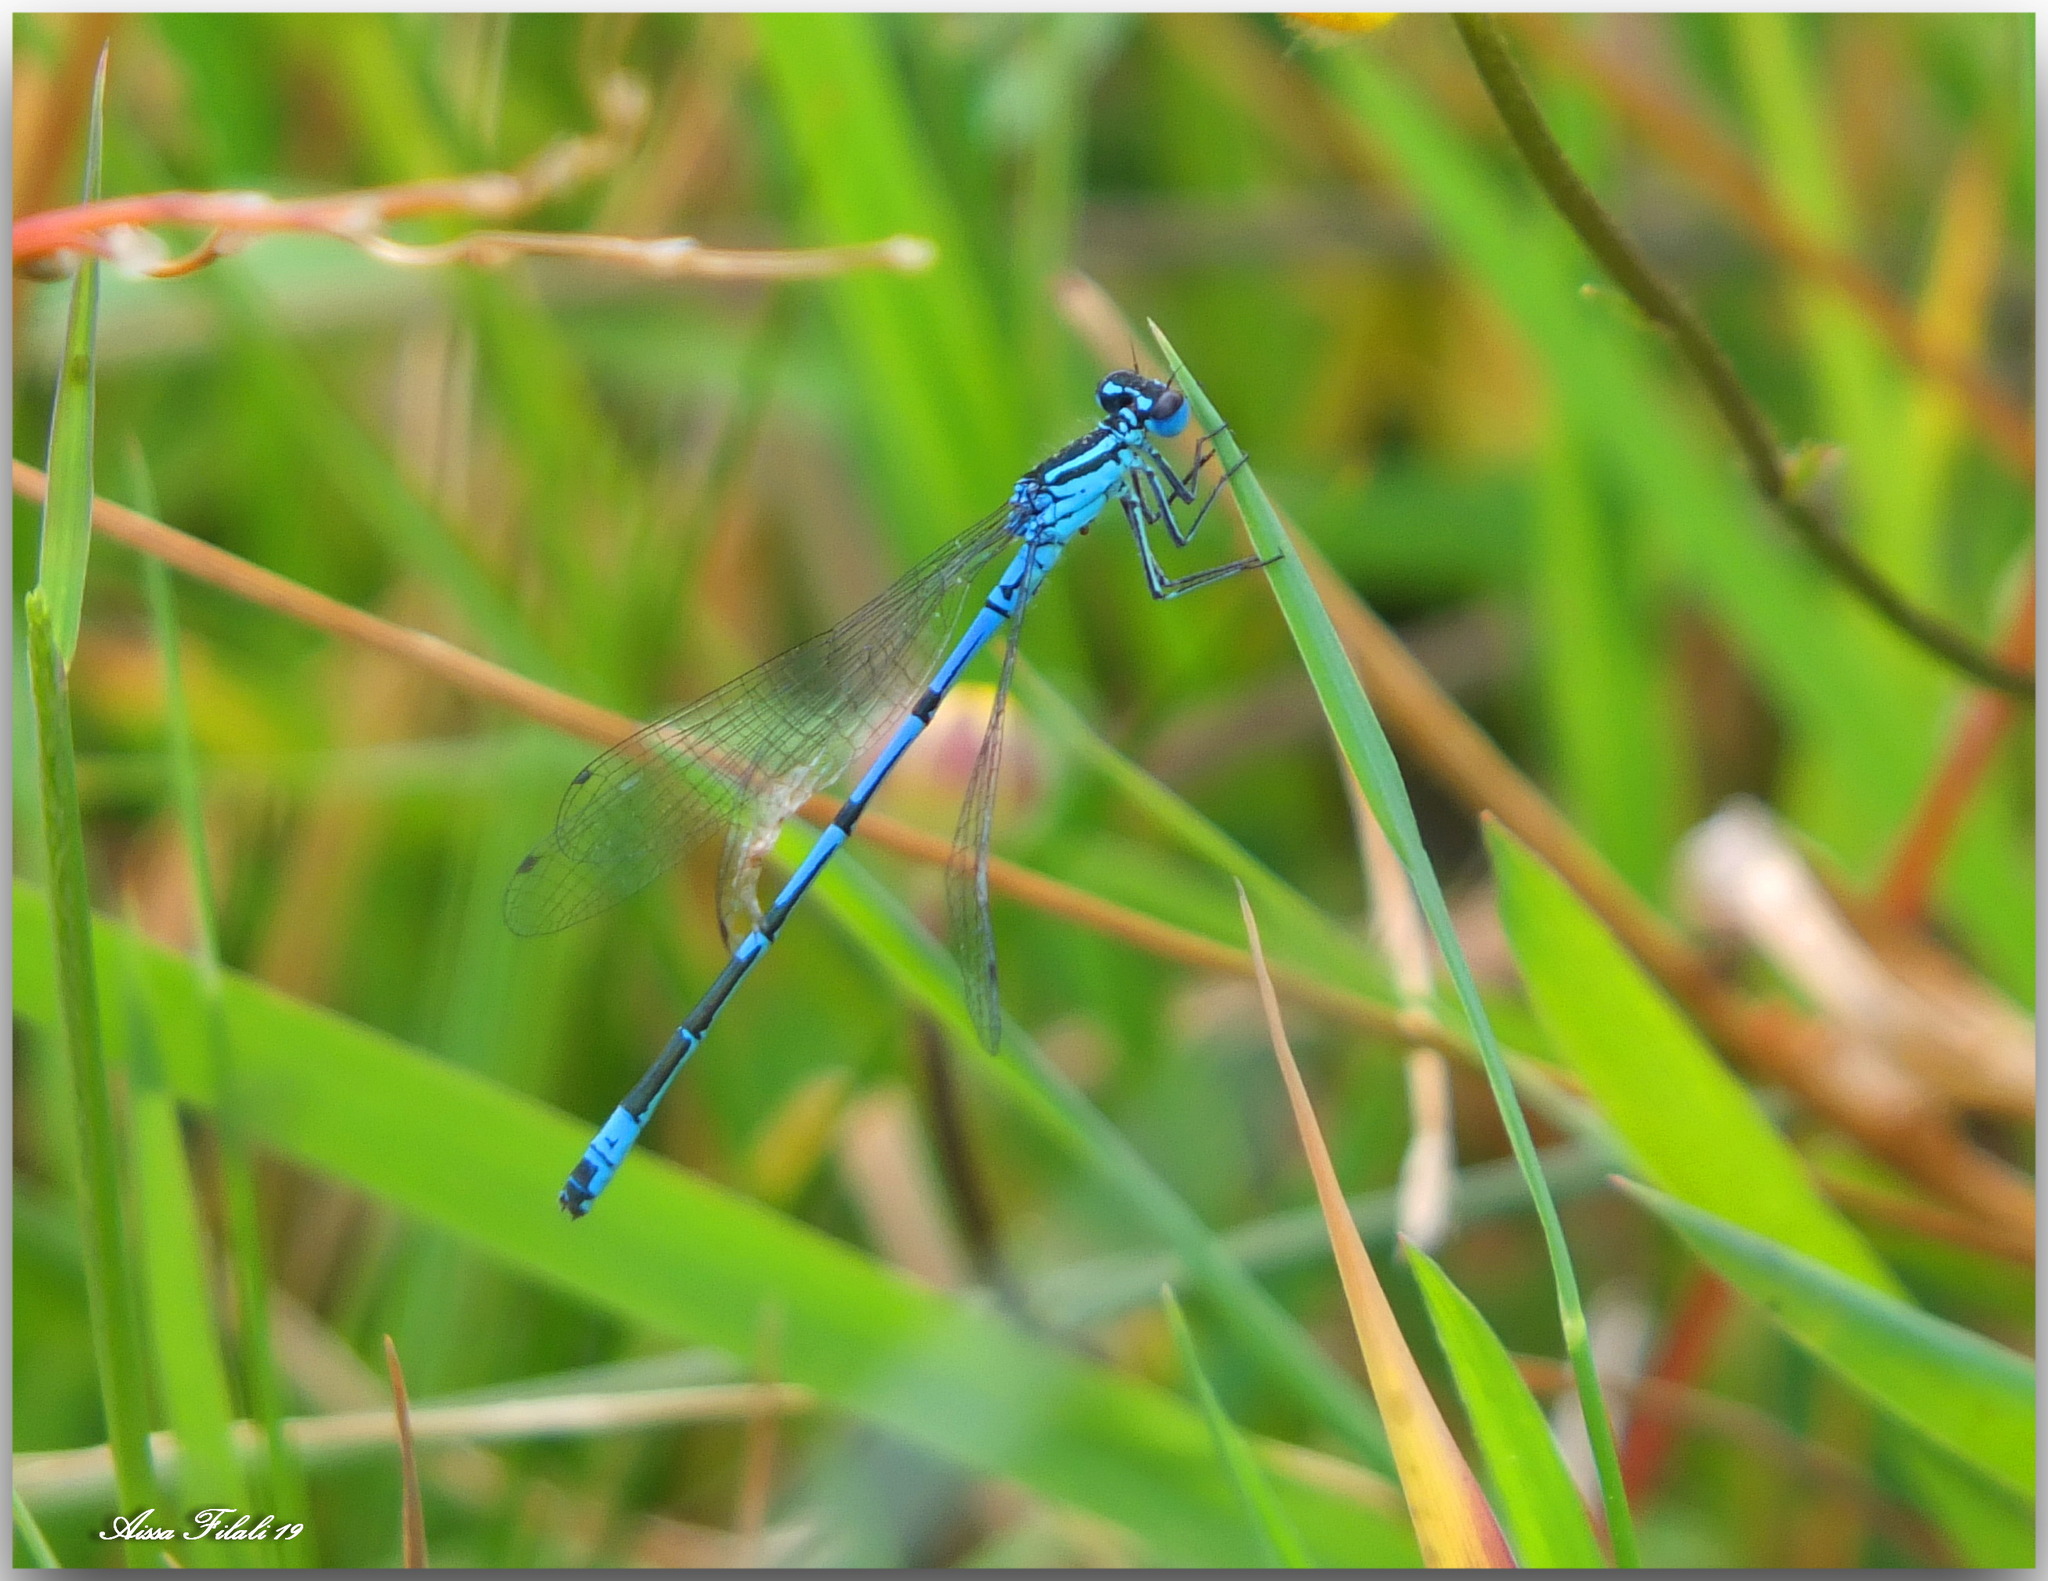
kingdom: Animalia
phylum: Arthropoda
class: Insecta
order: Odonata
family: Coenagrionidae
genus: Coenagrion
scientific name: Coenagrion puella
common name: Azure damselfly
